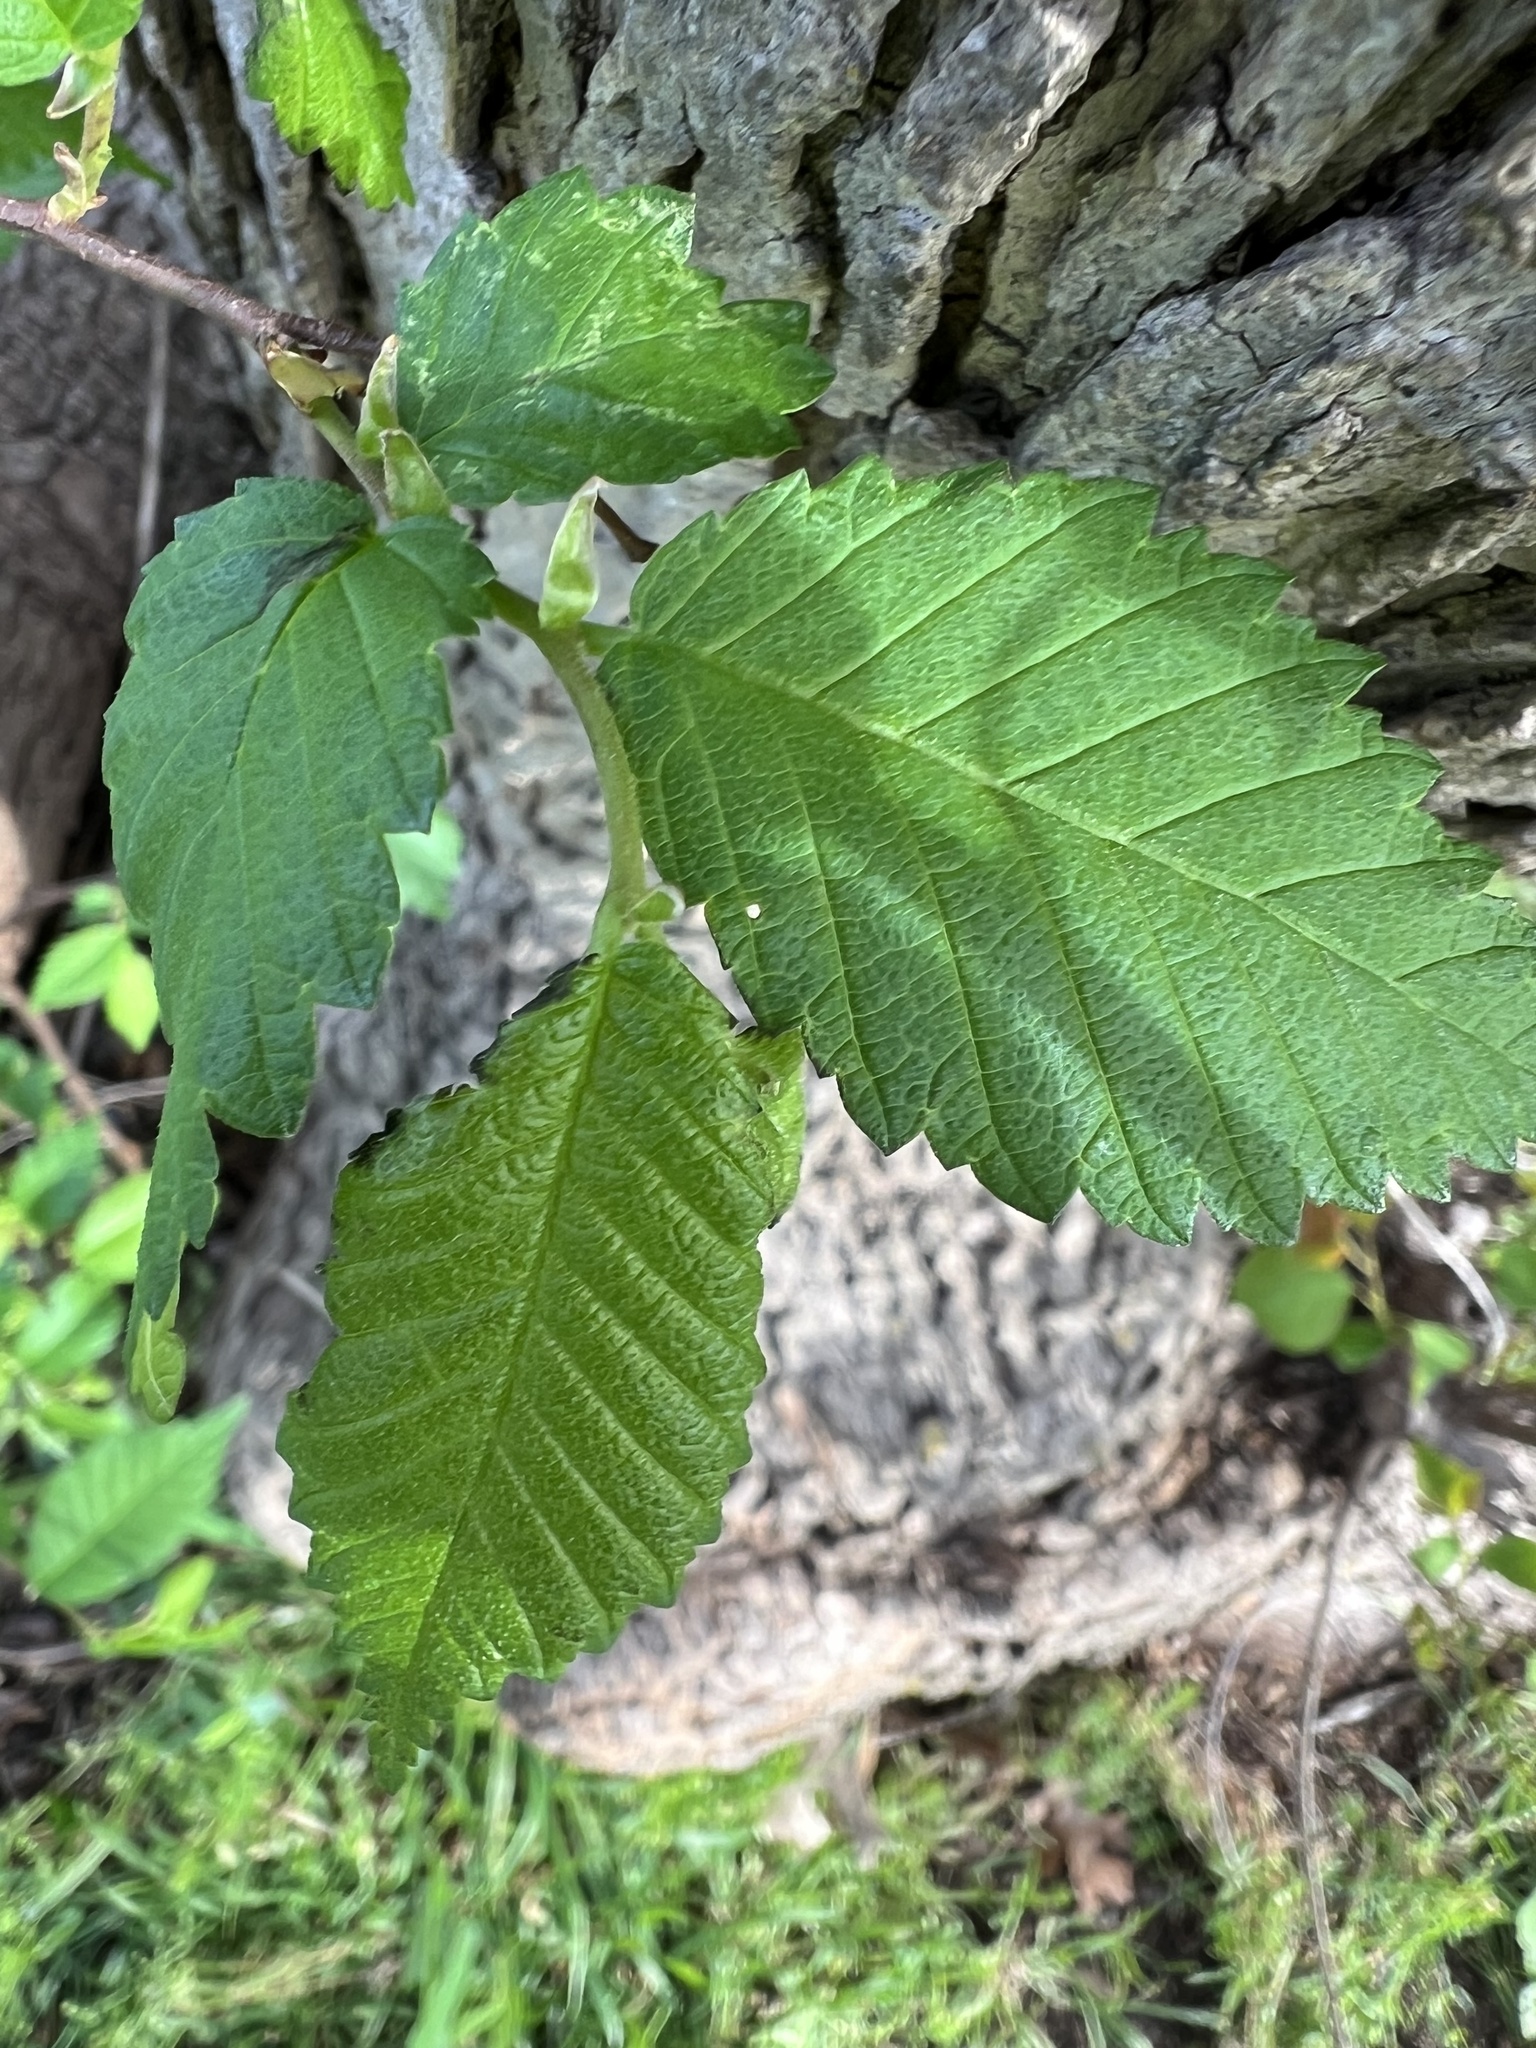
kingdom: Plantae
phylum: Tracheophyta
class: Magnoliopsida
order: Rosales
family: Ulmaceae
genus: Ulmus
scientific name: Ulmus americana
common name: American elm
